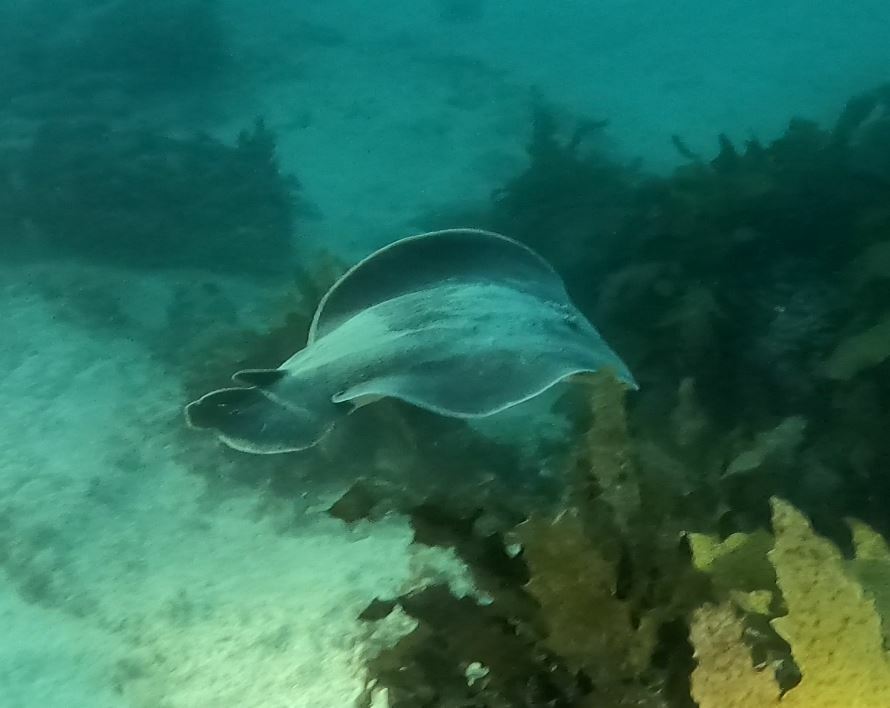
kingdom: Animalia
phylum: Chordata
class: Elasmobranchii
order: Torpediniformes
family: Hypnidae
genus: Hypnos
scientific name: Hypnos monopterygius
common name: Australian numbfish
